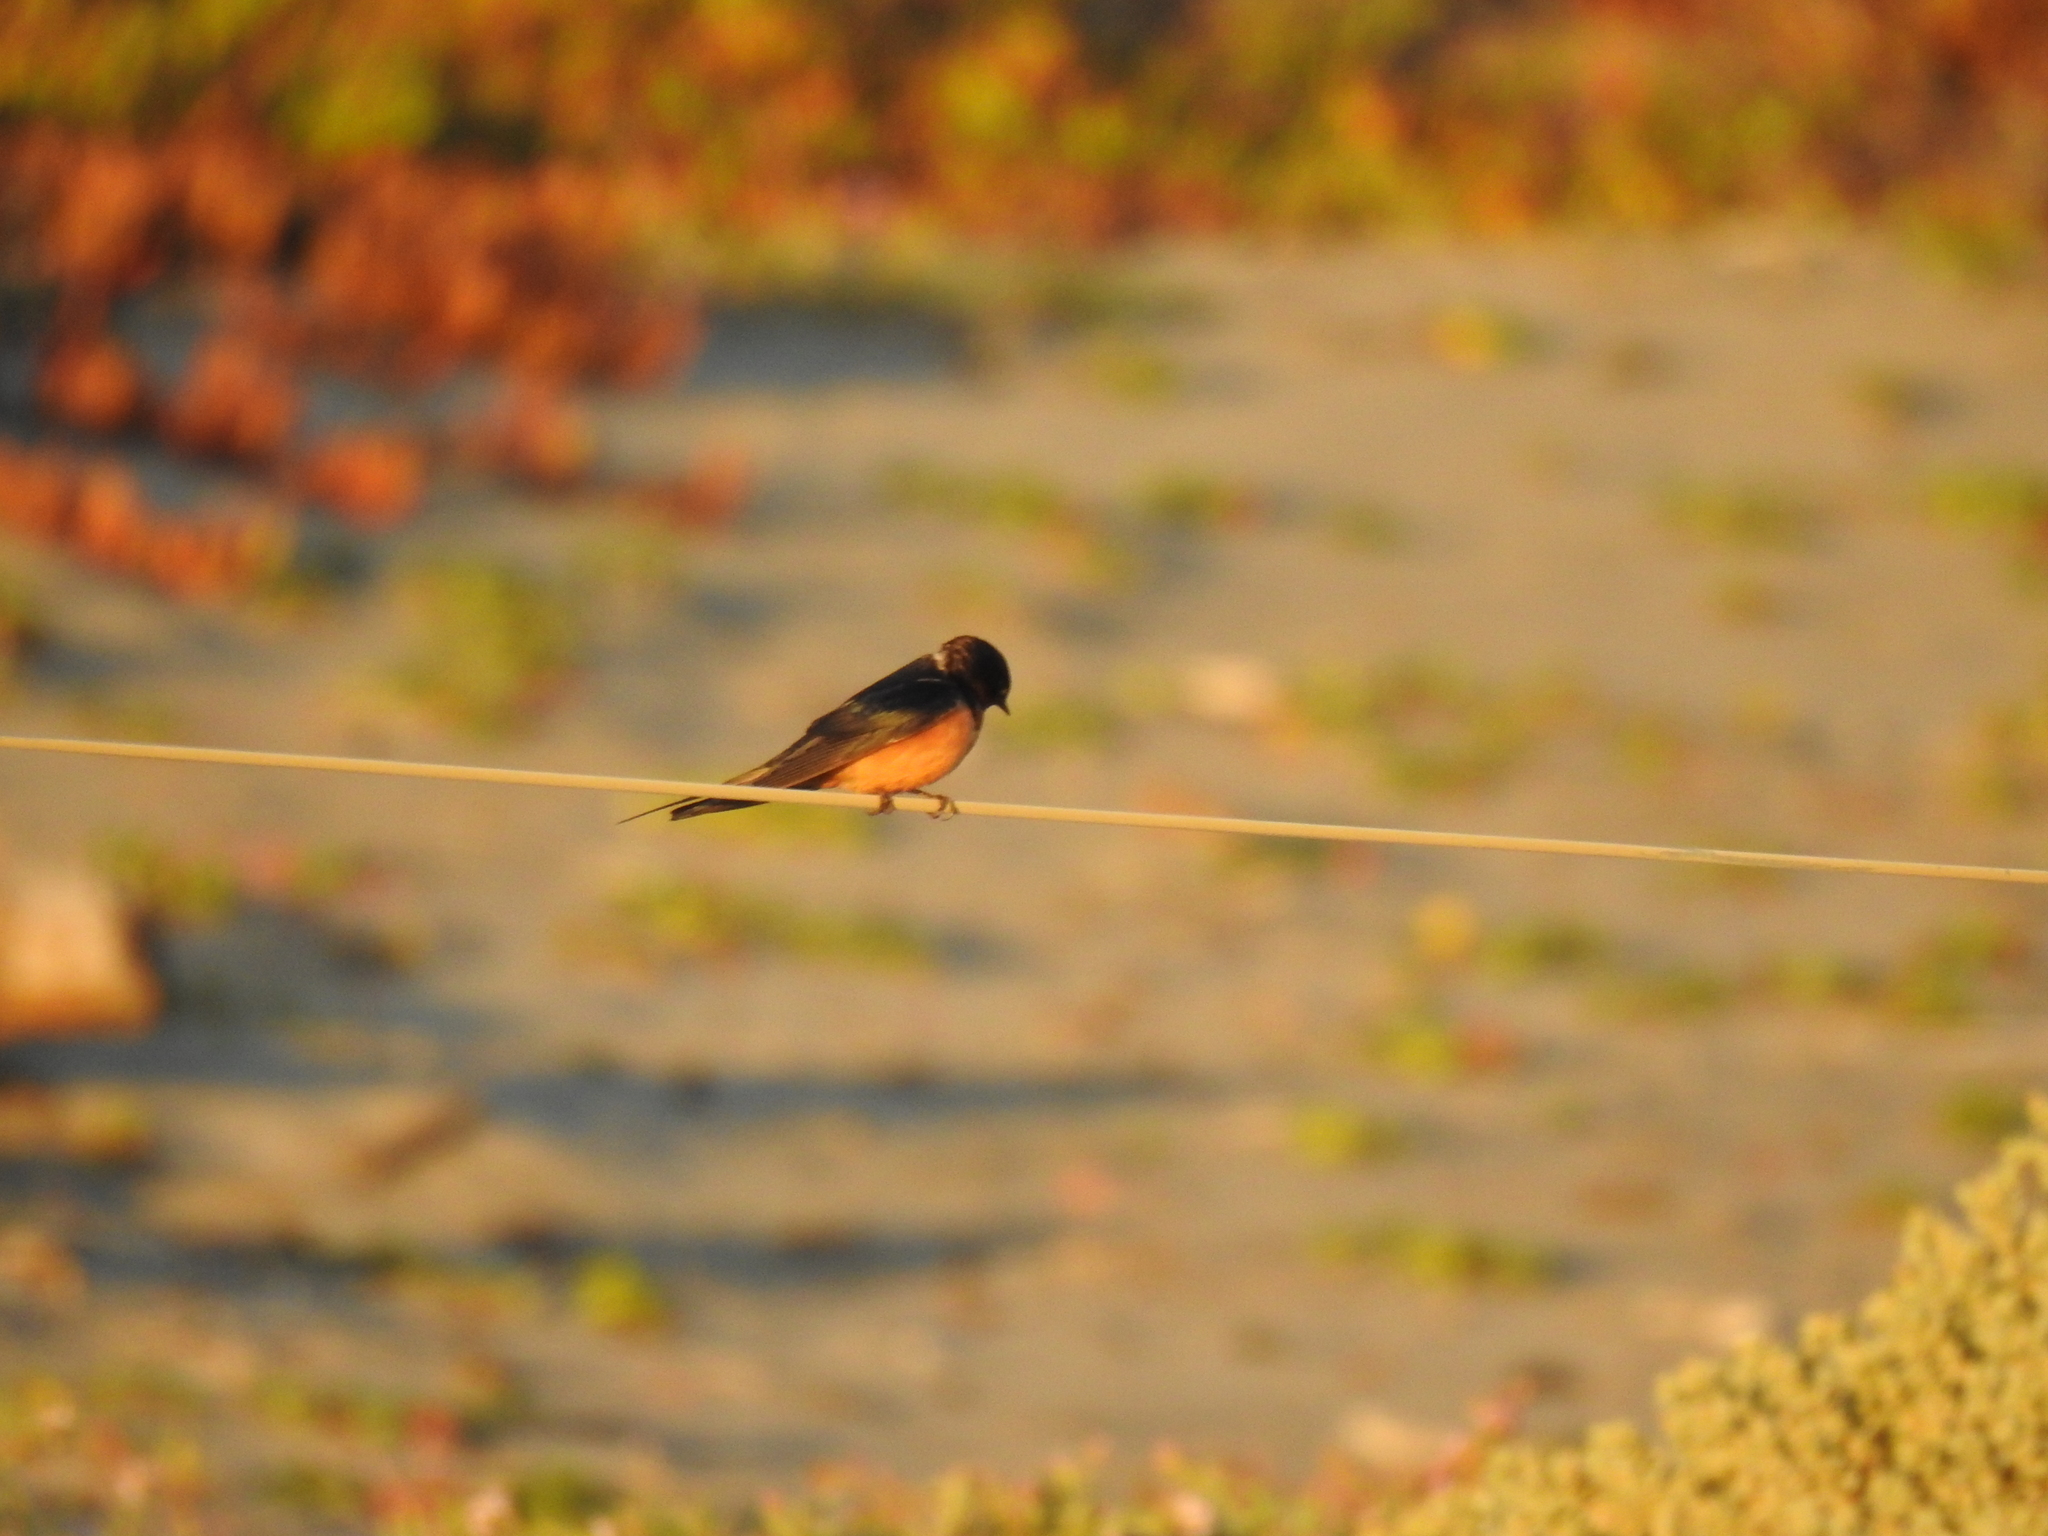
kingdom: Animalia
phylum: Chordata
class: Aves
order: Passeriformes
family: Hirundinidae
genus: Hirundo
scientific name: Hirundo rustica
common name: Barn swallow
